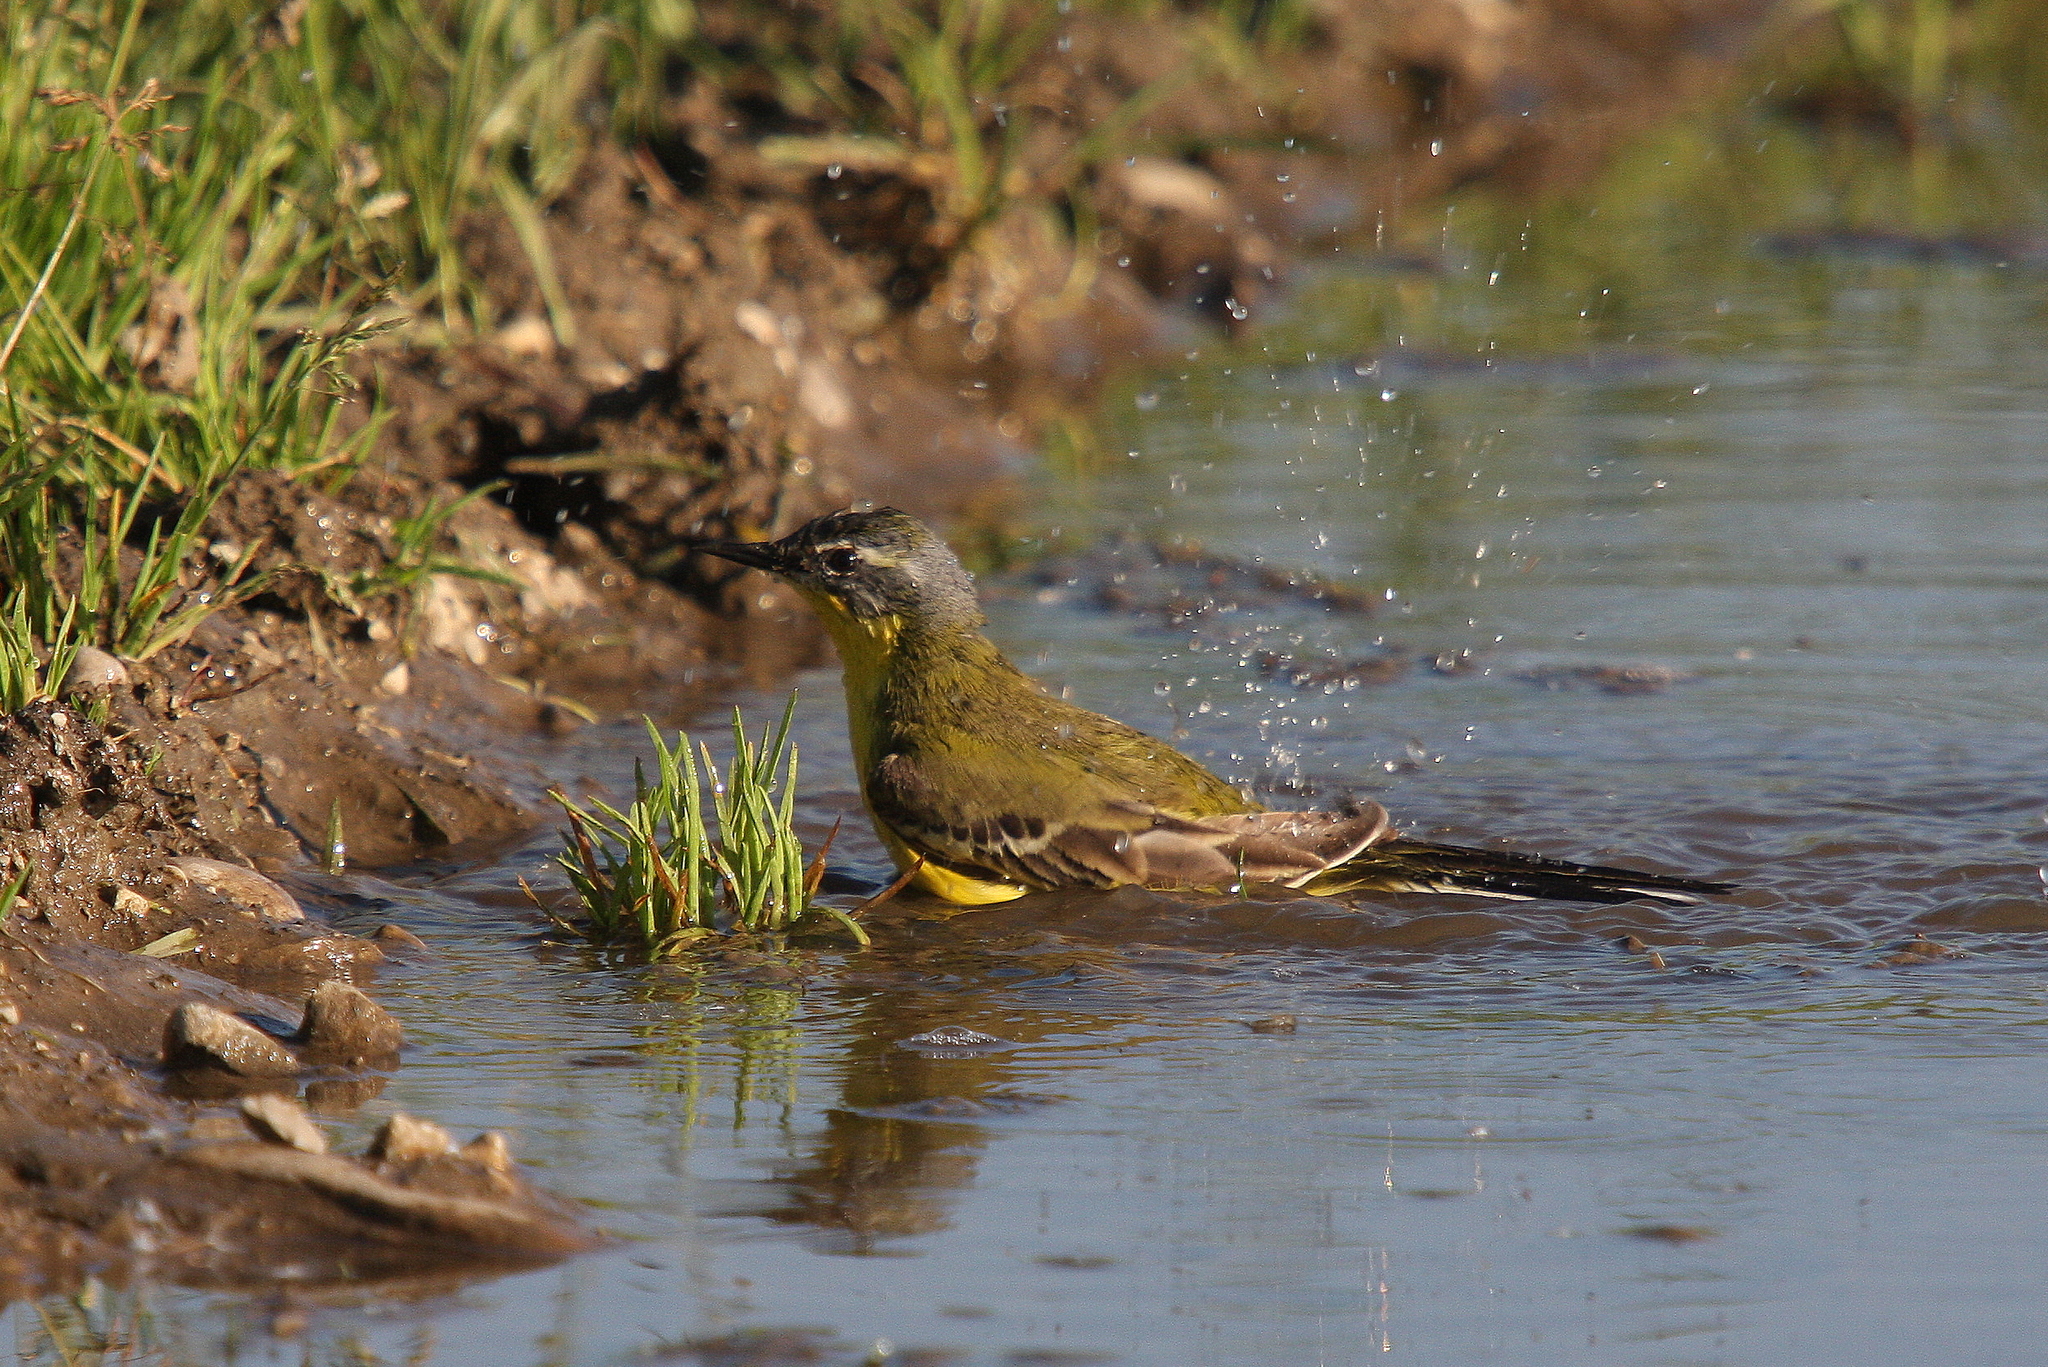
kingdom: Animalia
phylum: Chordata
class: Aves
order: Passeriformes
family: Motacillidae
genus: Motacilla
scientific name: Motacilla flava
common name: Western yellow wagtail
